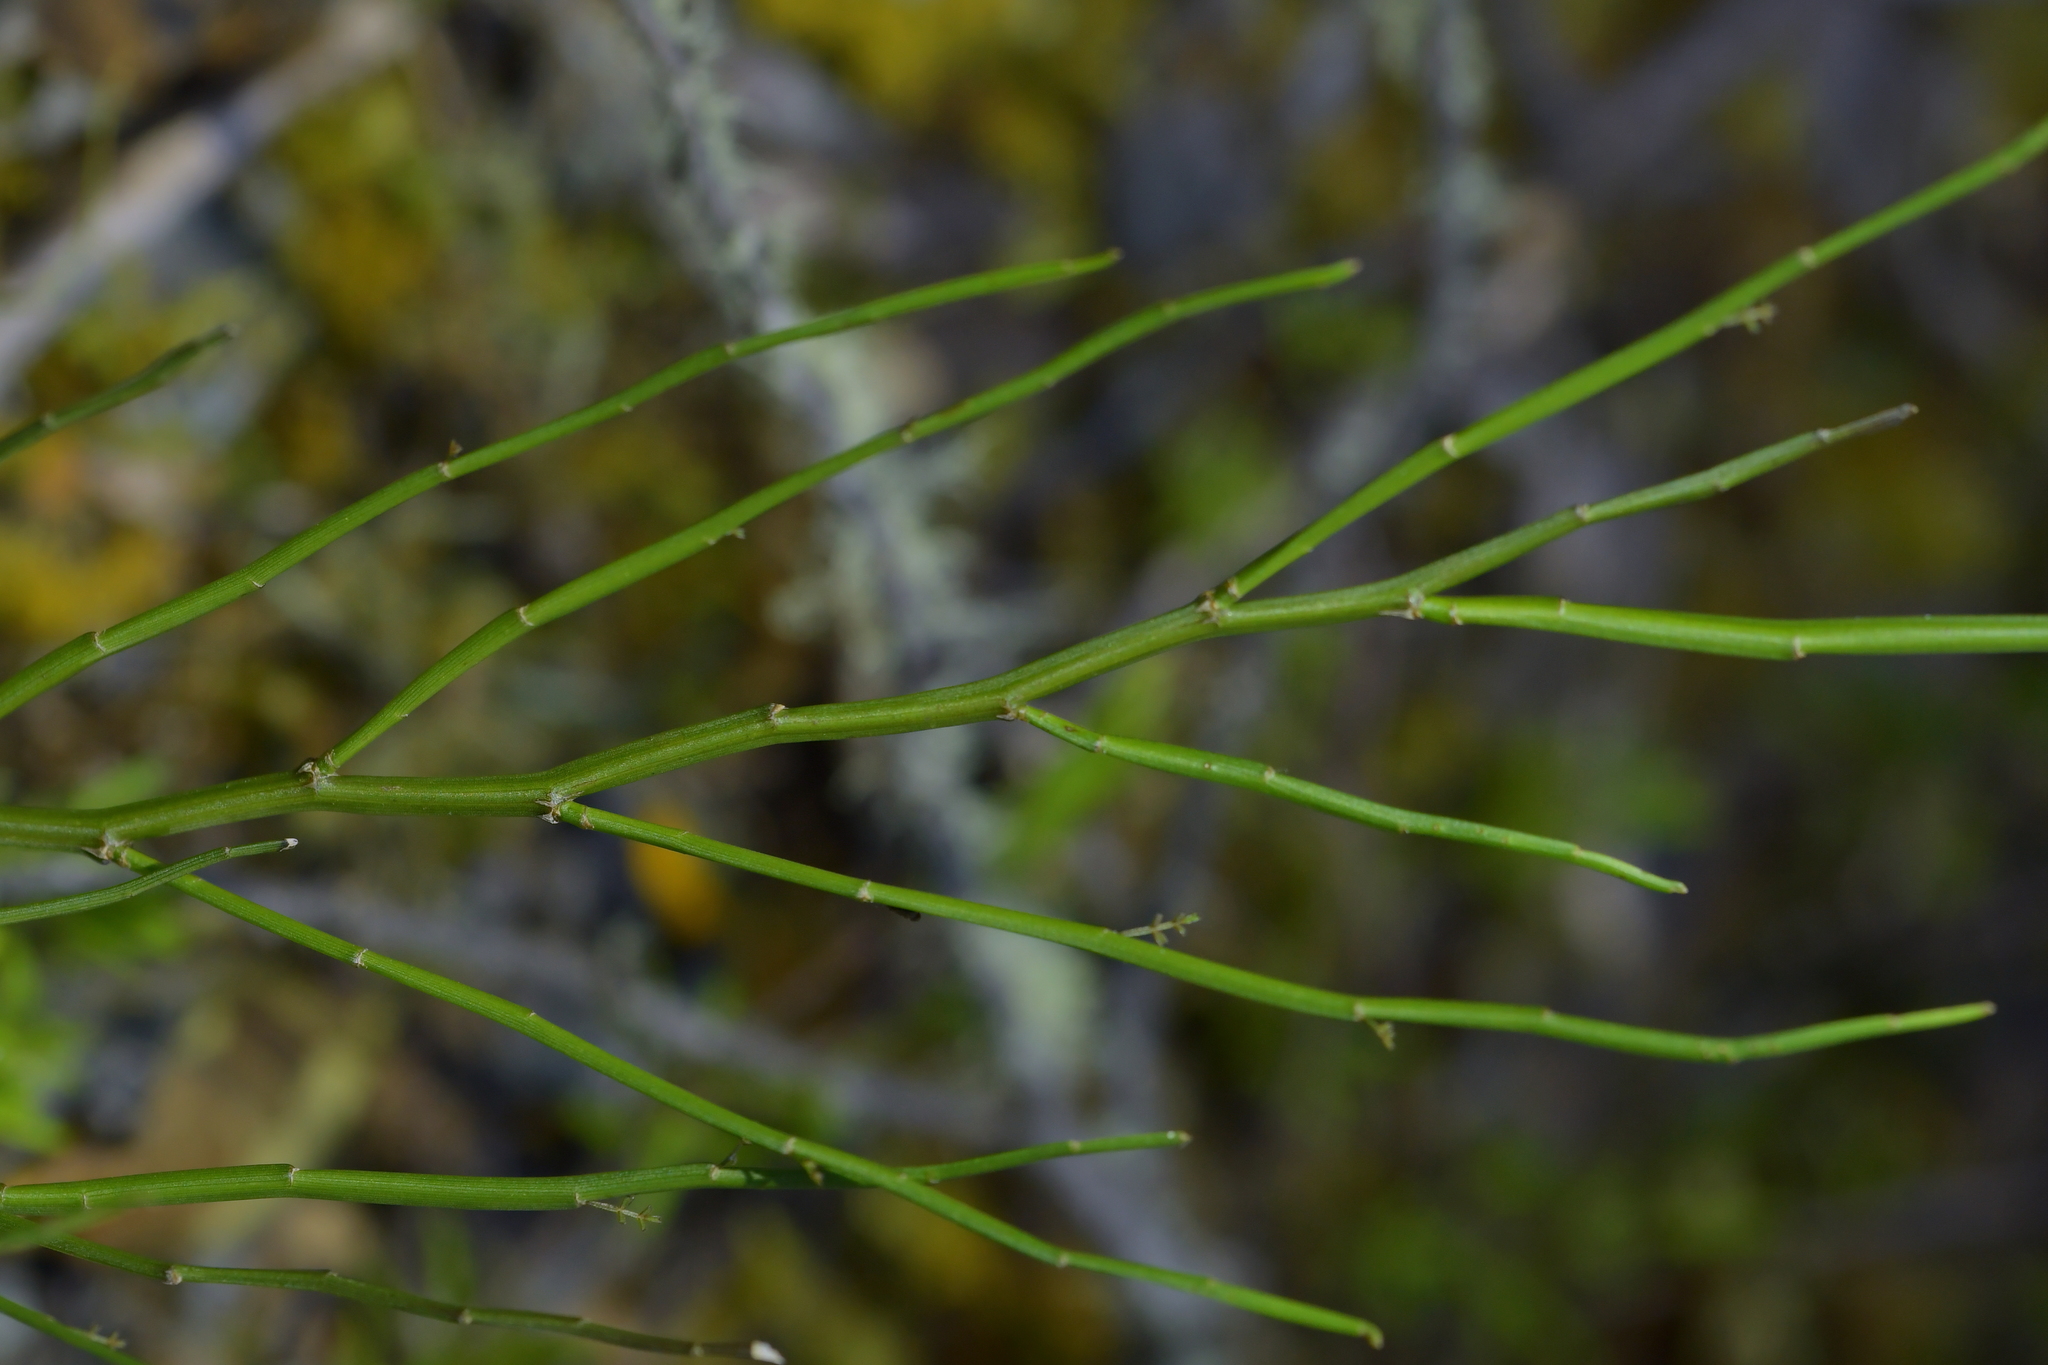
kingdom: Plantae
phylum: Tracheophyta
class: Magnoliopsida
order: Fabales
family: Fabaceae
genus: Carmichaelia
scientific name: Carmichaelia australis
